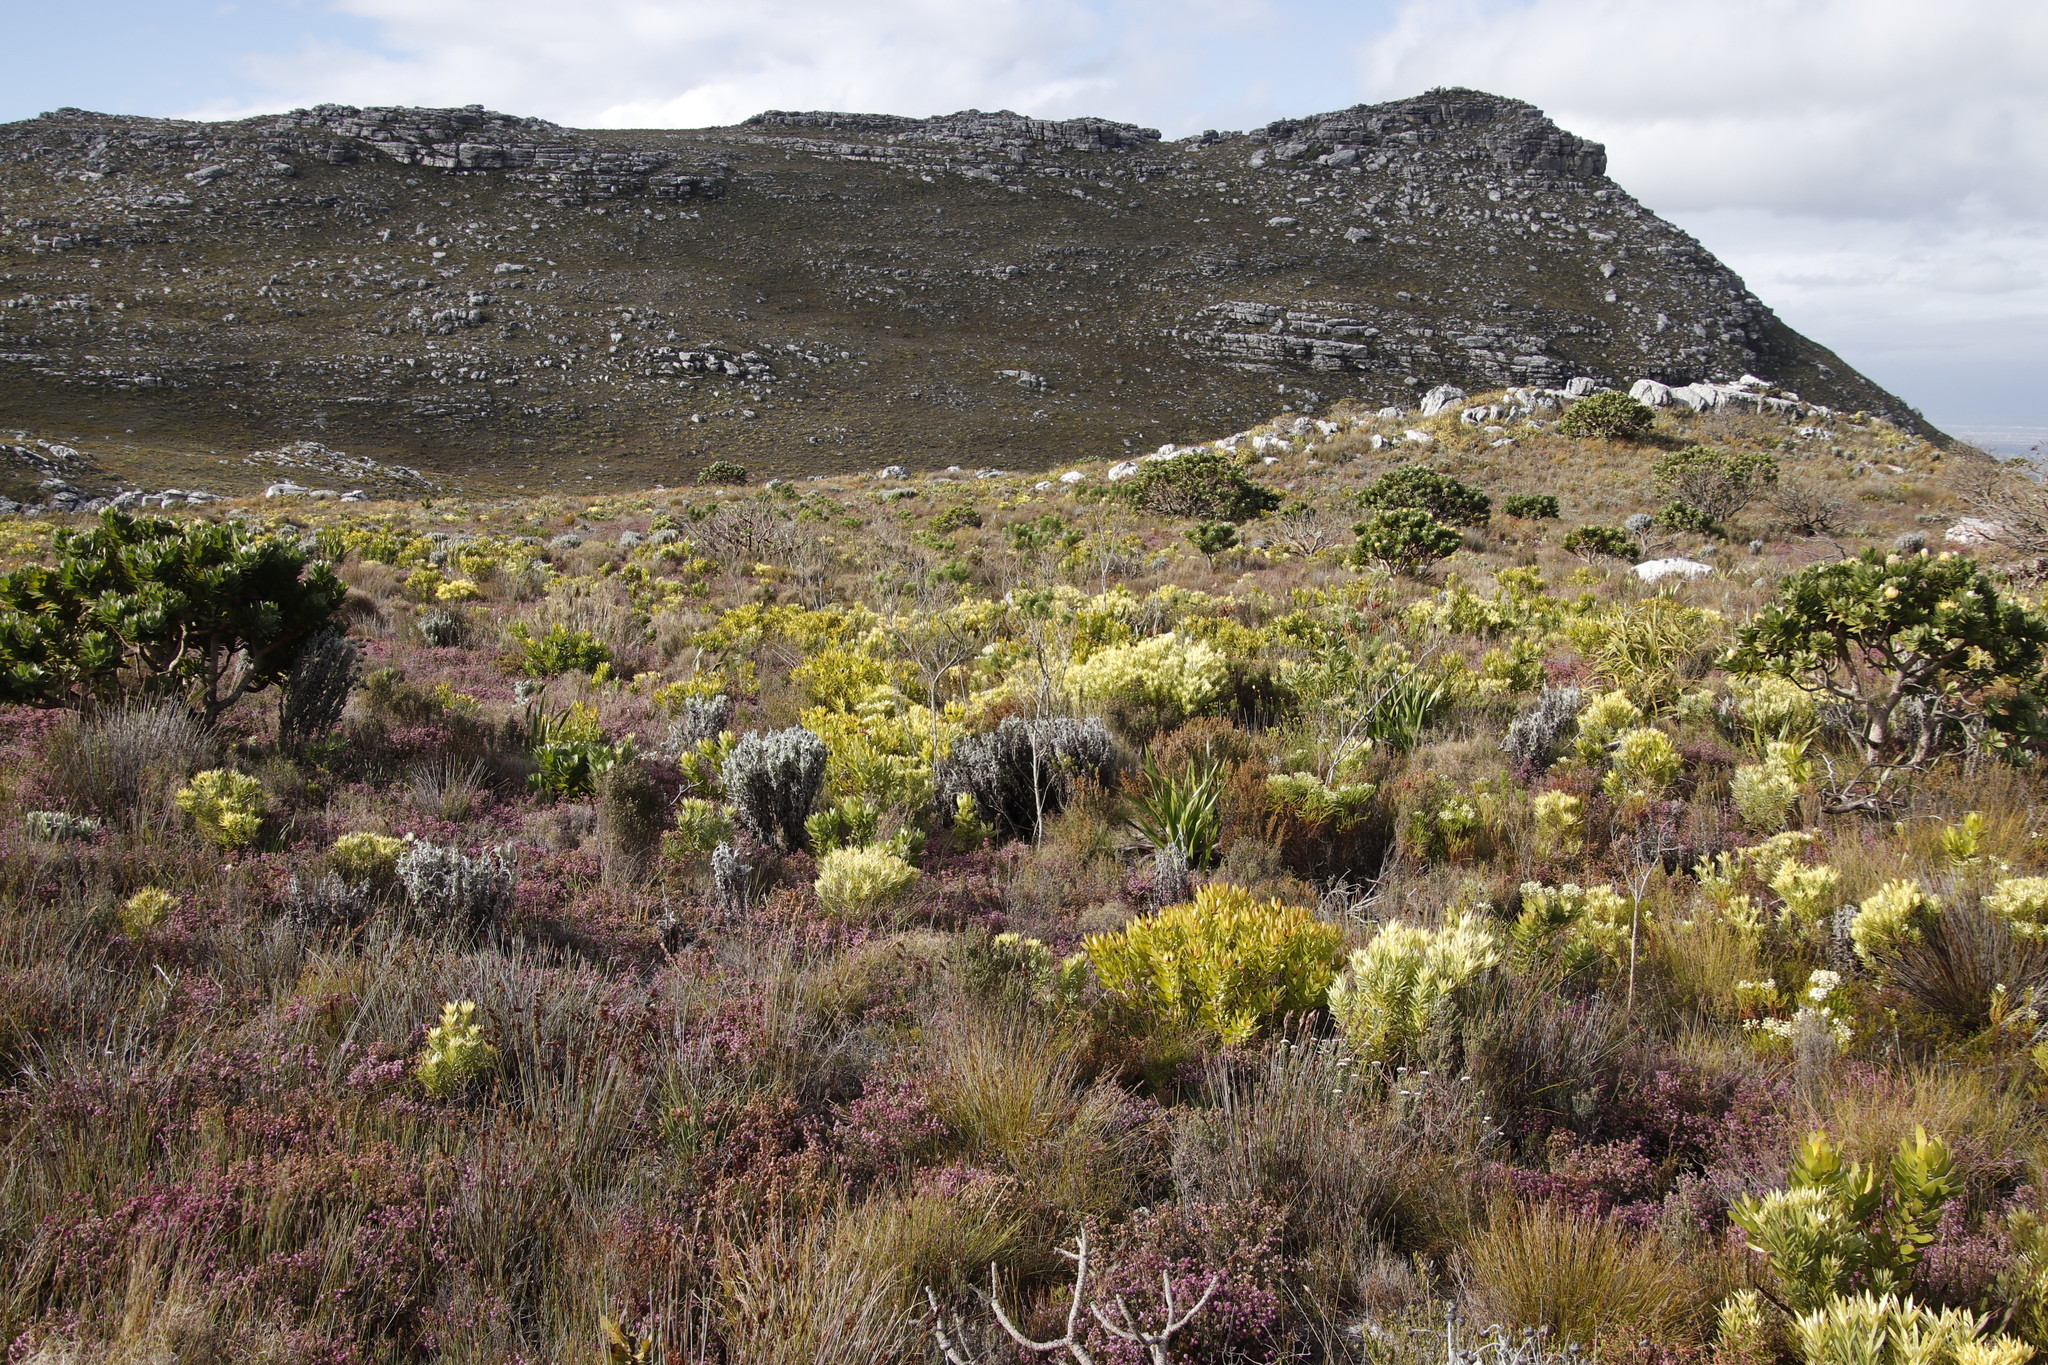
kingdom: Plantae
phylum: Tracheophyta
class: Magnoliopsida
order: Fabales
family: Fabaceae
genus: Psoralea
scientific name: Psoralea pinnata
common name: African scurfpea
